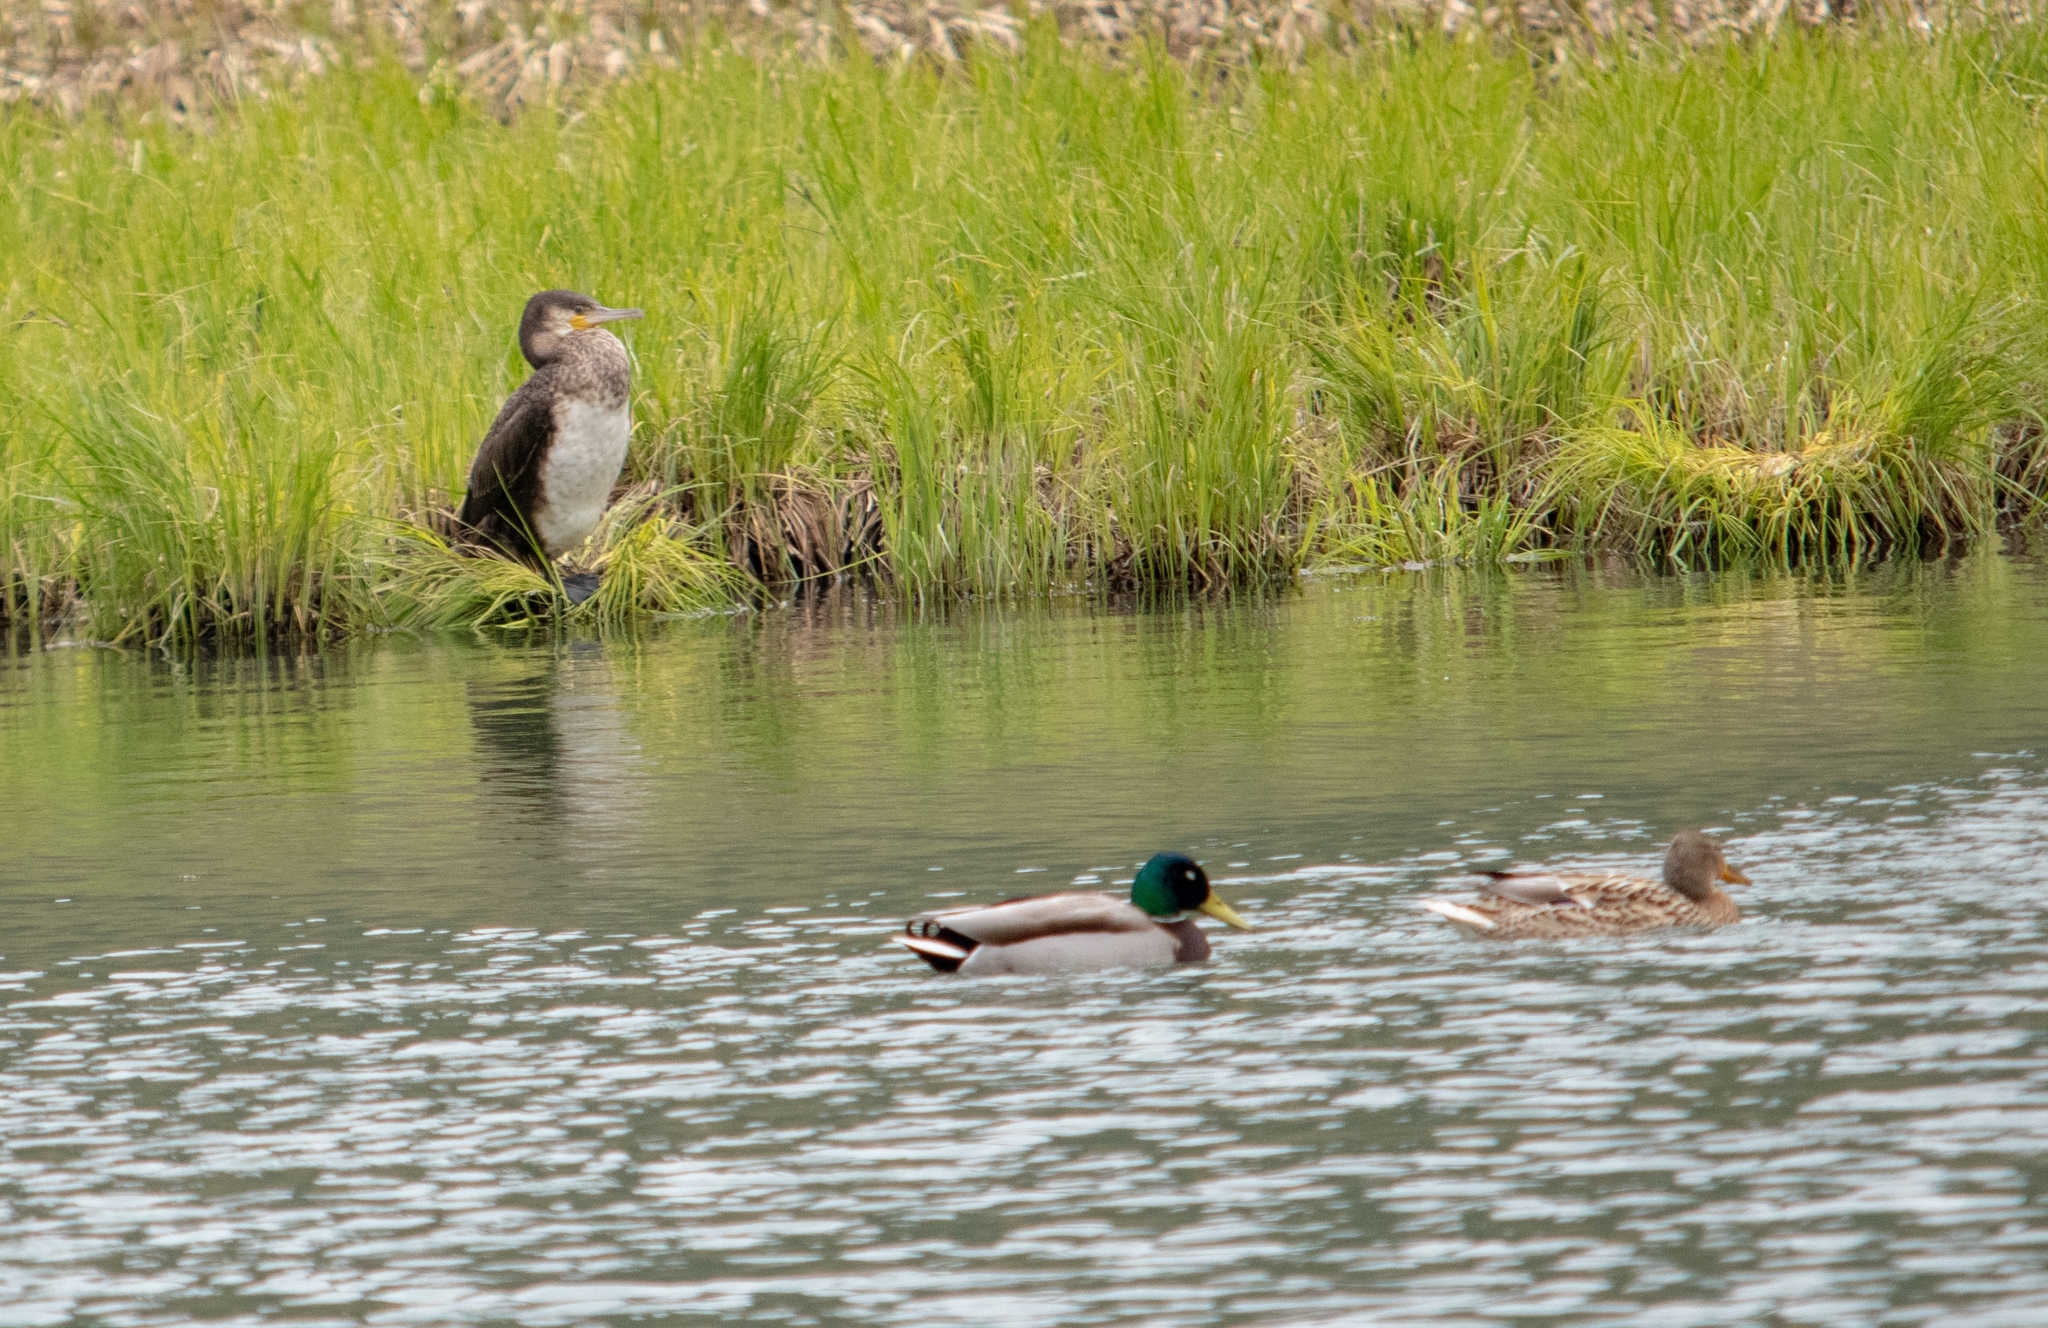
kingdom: Animalia
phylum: Chordata
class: Aves
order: Suliformes
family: Phalacrocoracidae
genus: Phalacrocorax
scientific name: Phalacrocorax carbo
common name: Great cormorant
